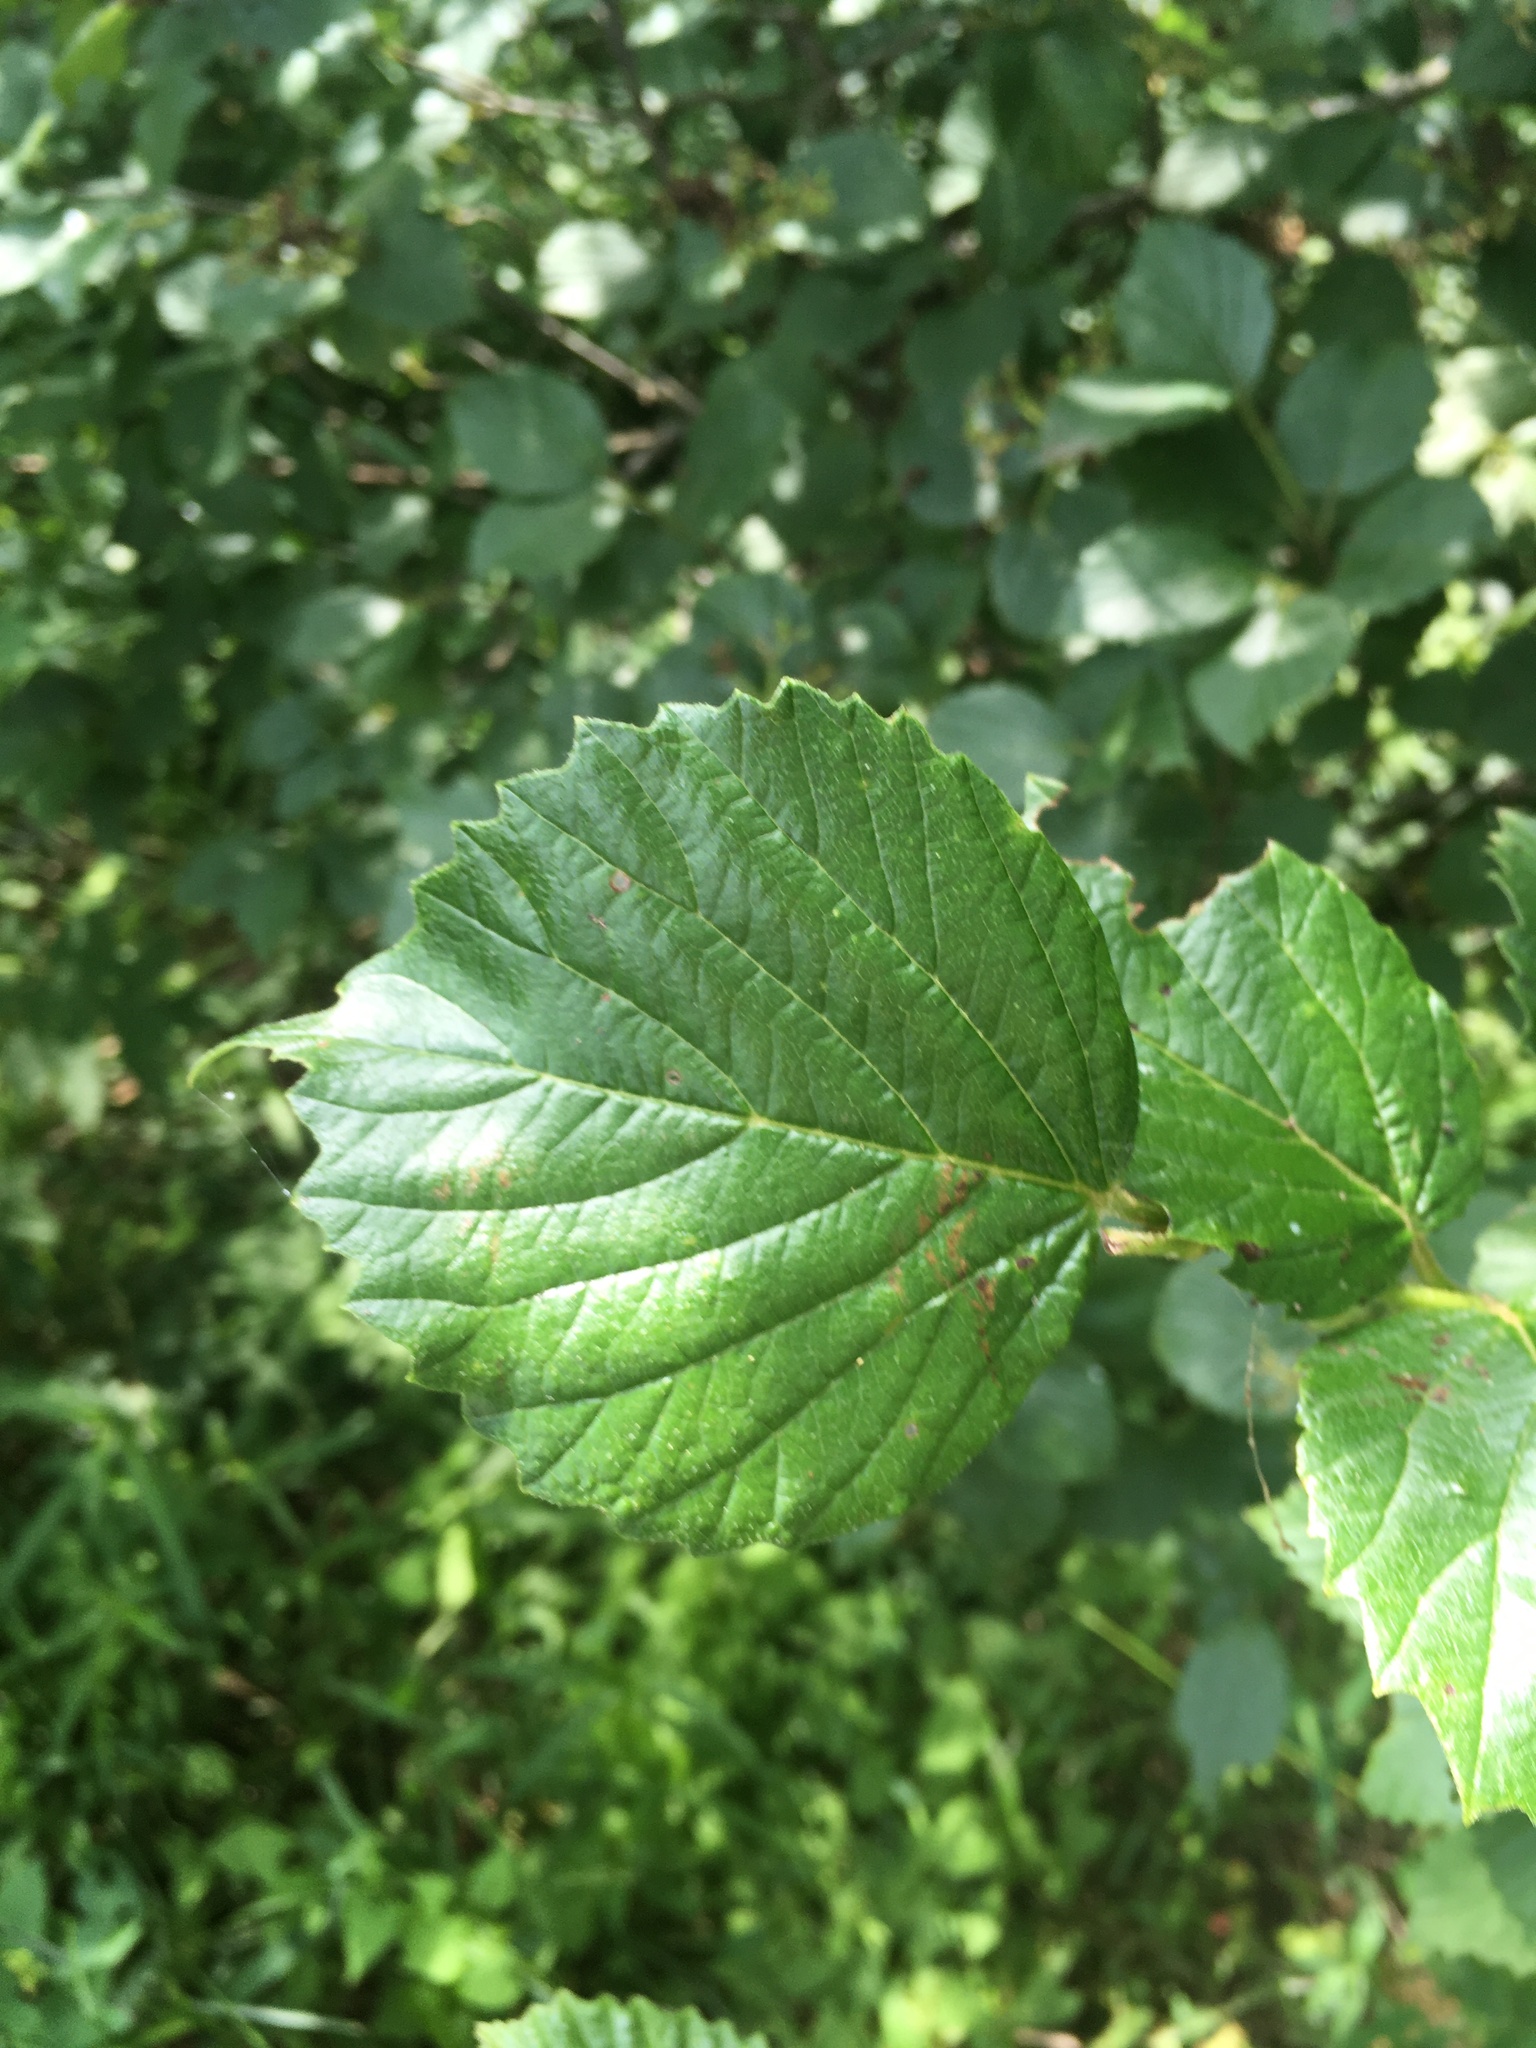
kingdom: Plantae
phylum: Tracheophyta
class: Magnoliopsida
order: Dipsacales
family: Viburnaceae
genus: Viburnum
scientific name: Viburnum dentatum
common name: Arrow-wood
